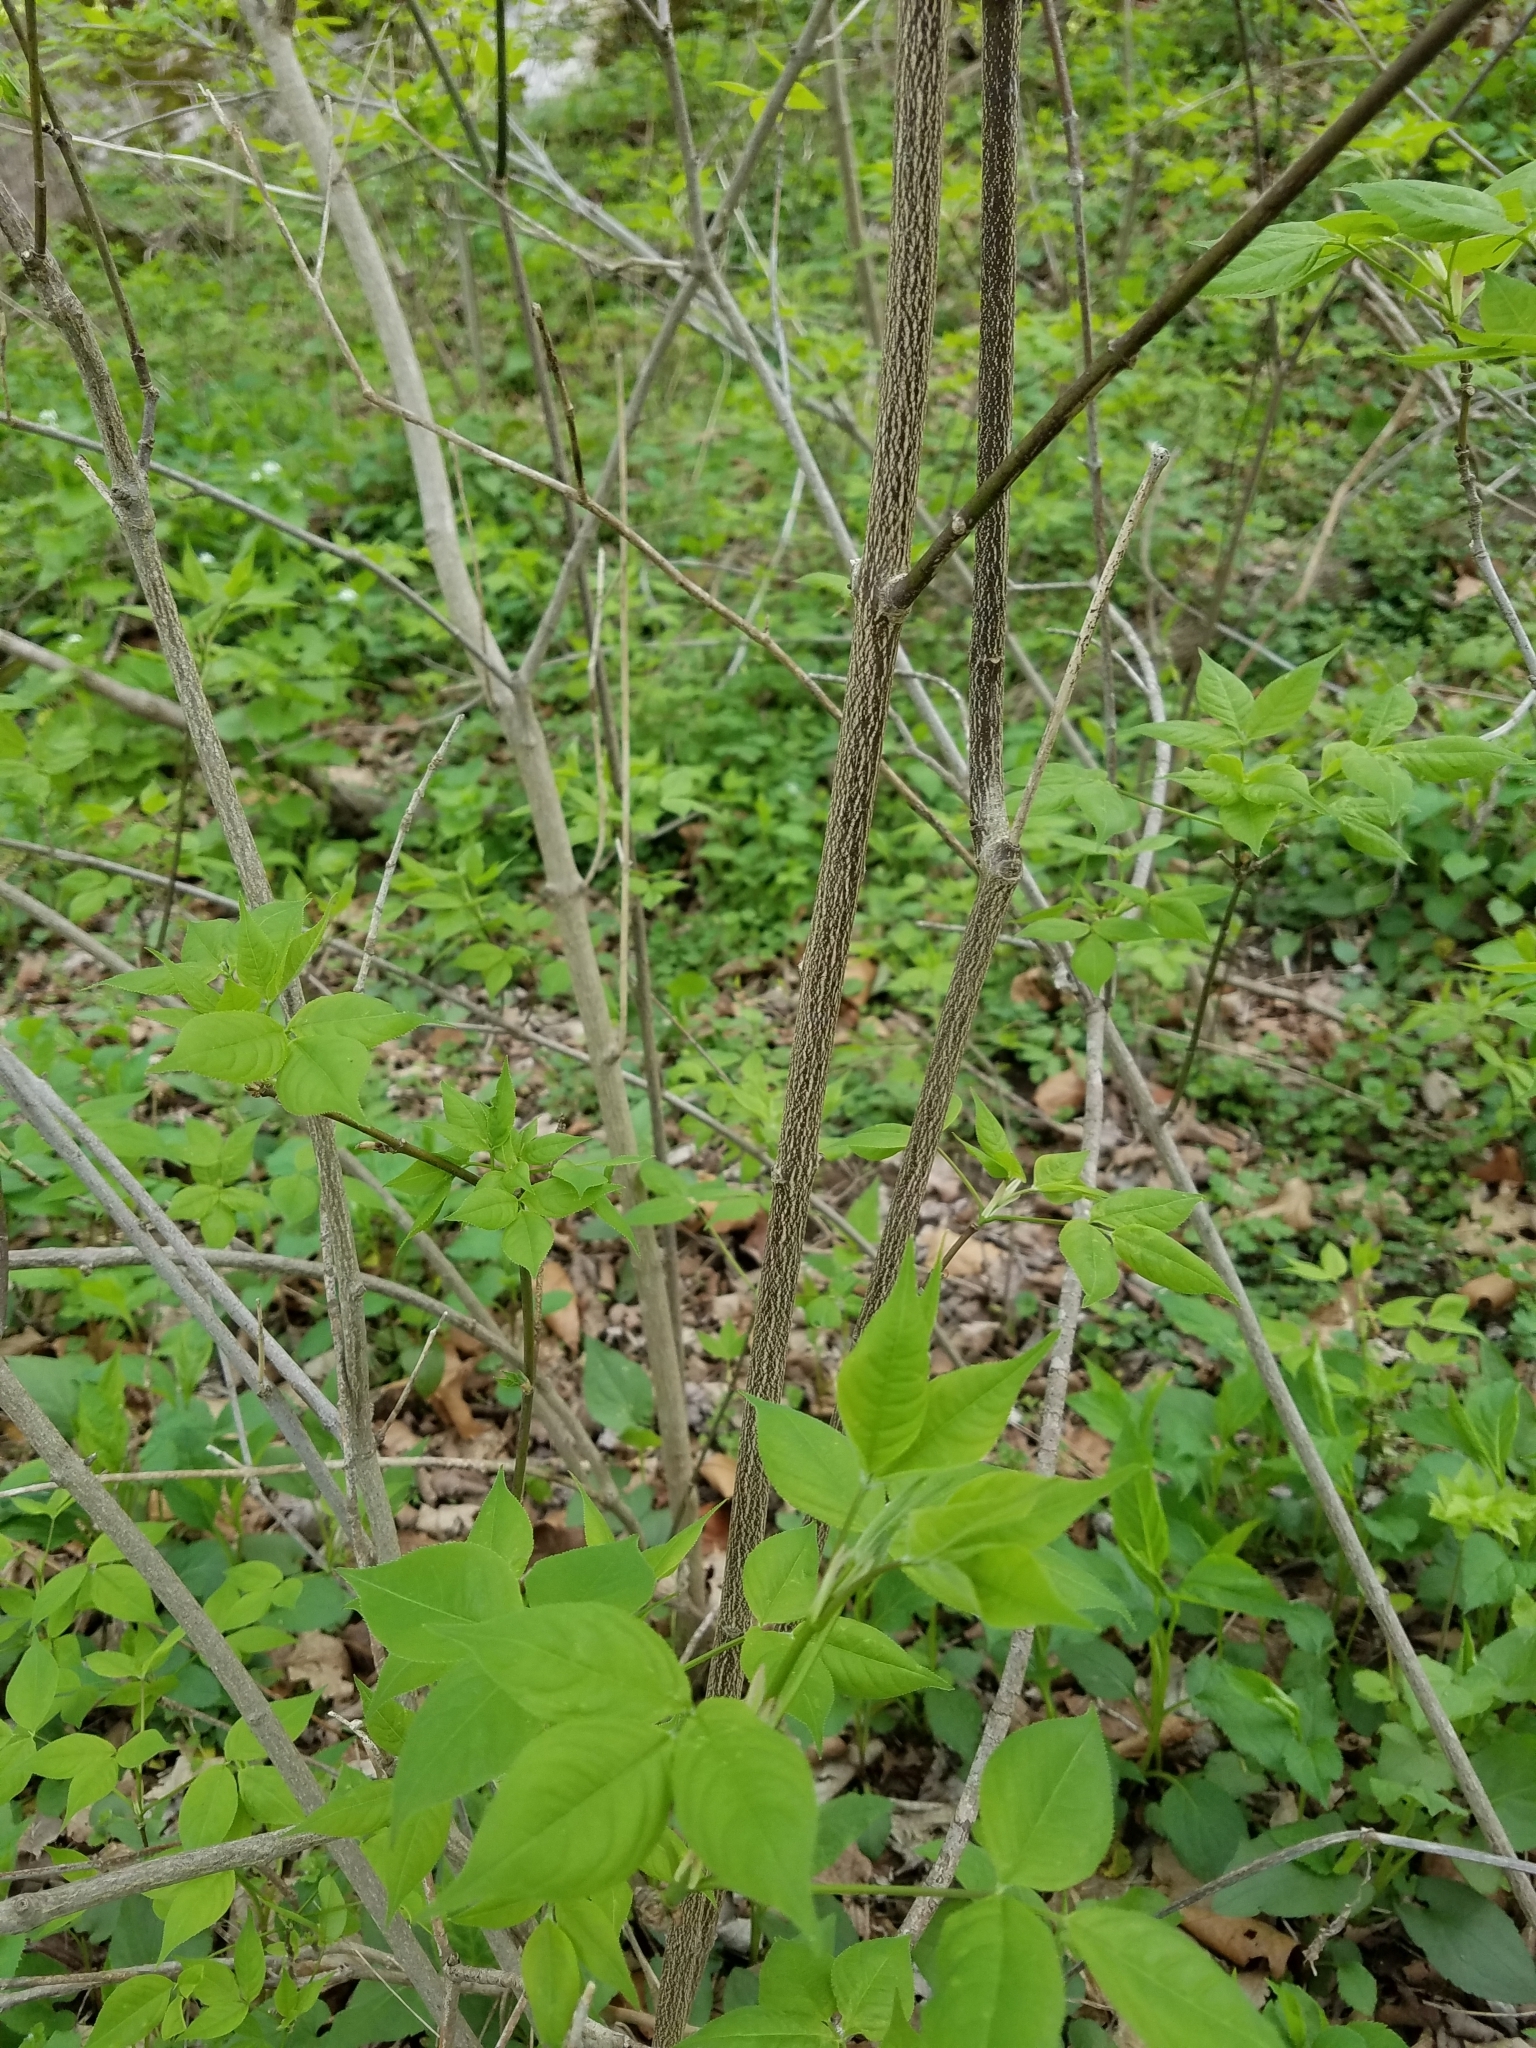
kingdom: Plantae
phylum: Tracheophyta
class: Magnoliopsida
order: Crossosomatales
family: Staphyleaceae
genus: Staphylea
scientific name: Staphylea trifolia
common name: American bladdernut
